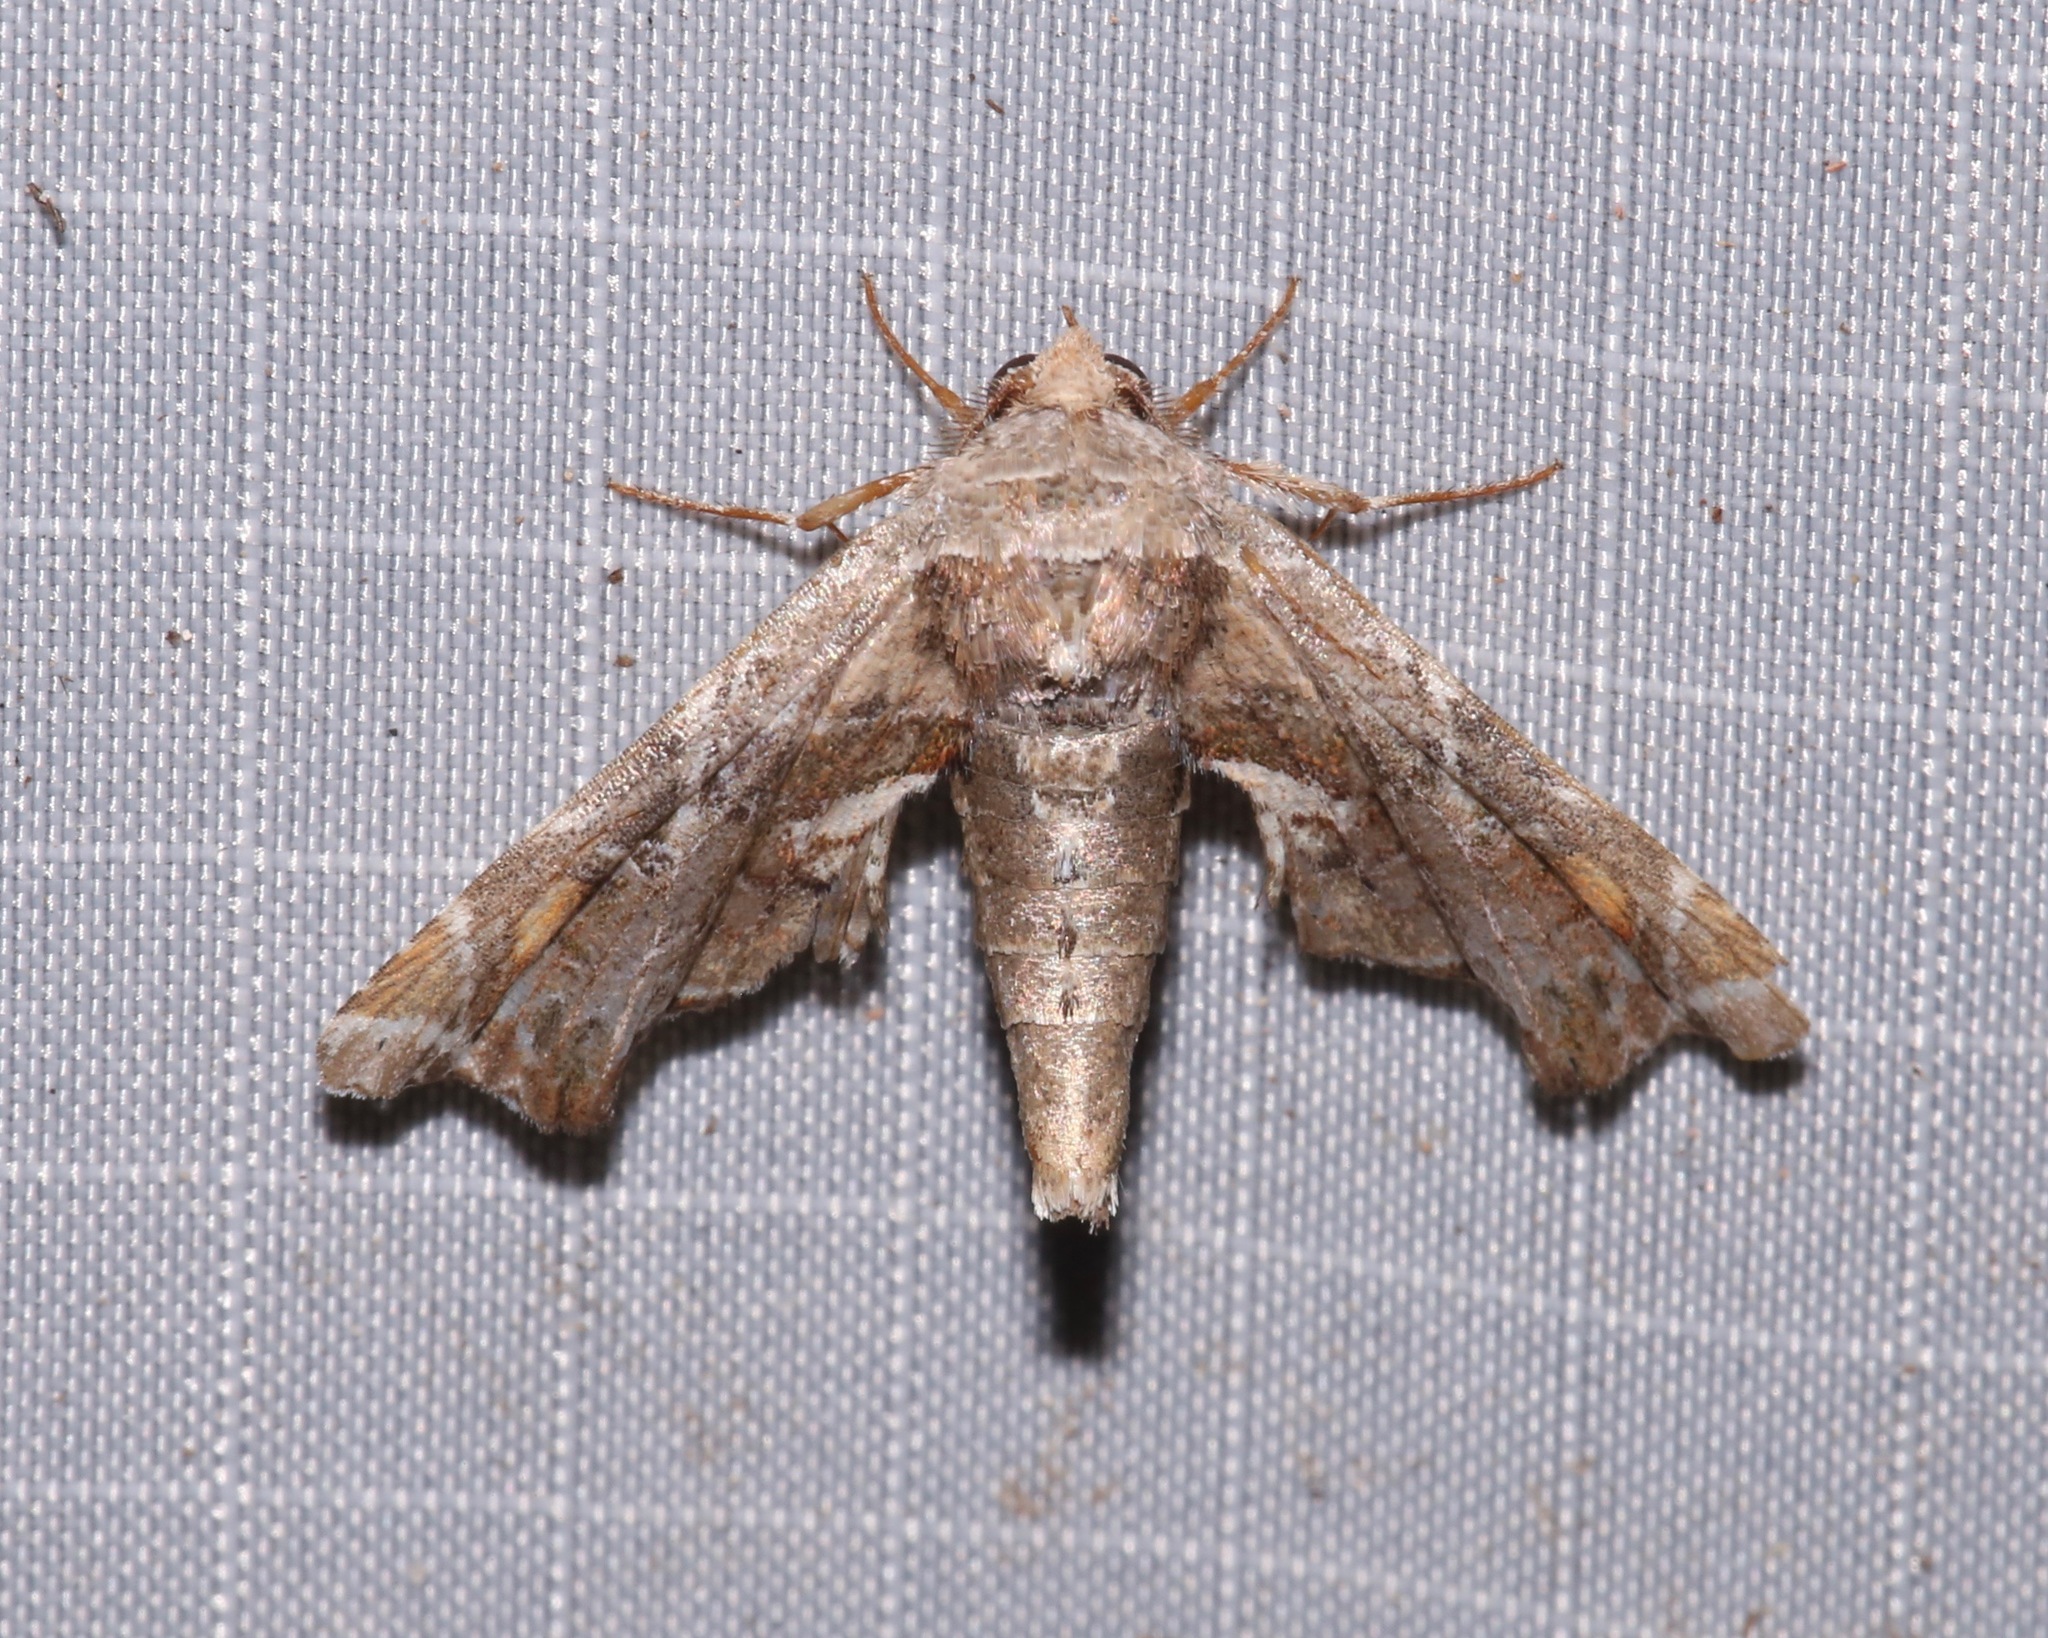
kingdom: Animalia
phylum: Arthropoda
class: Insecta
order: Lepidoptera
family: Euteliidae
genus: Eutelia
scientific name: Eutelia furcata
